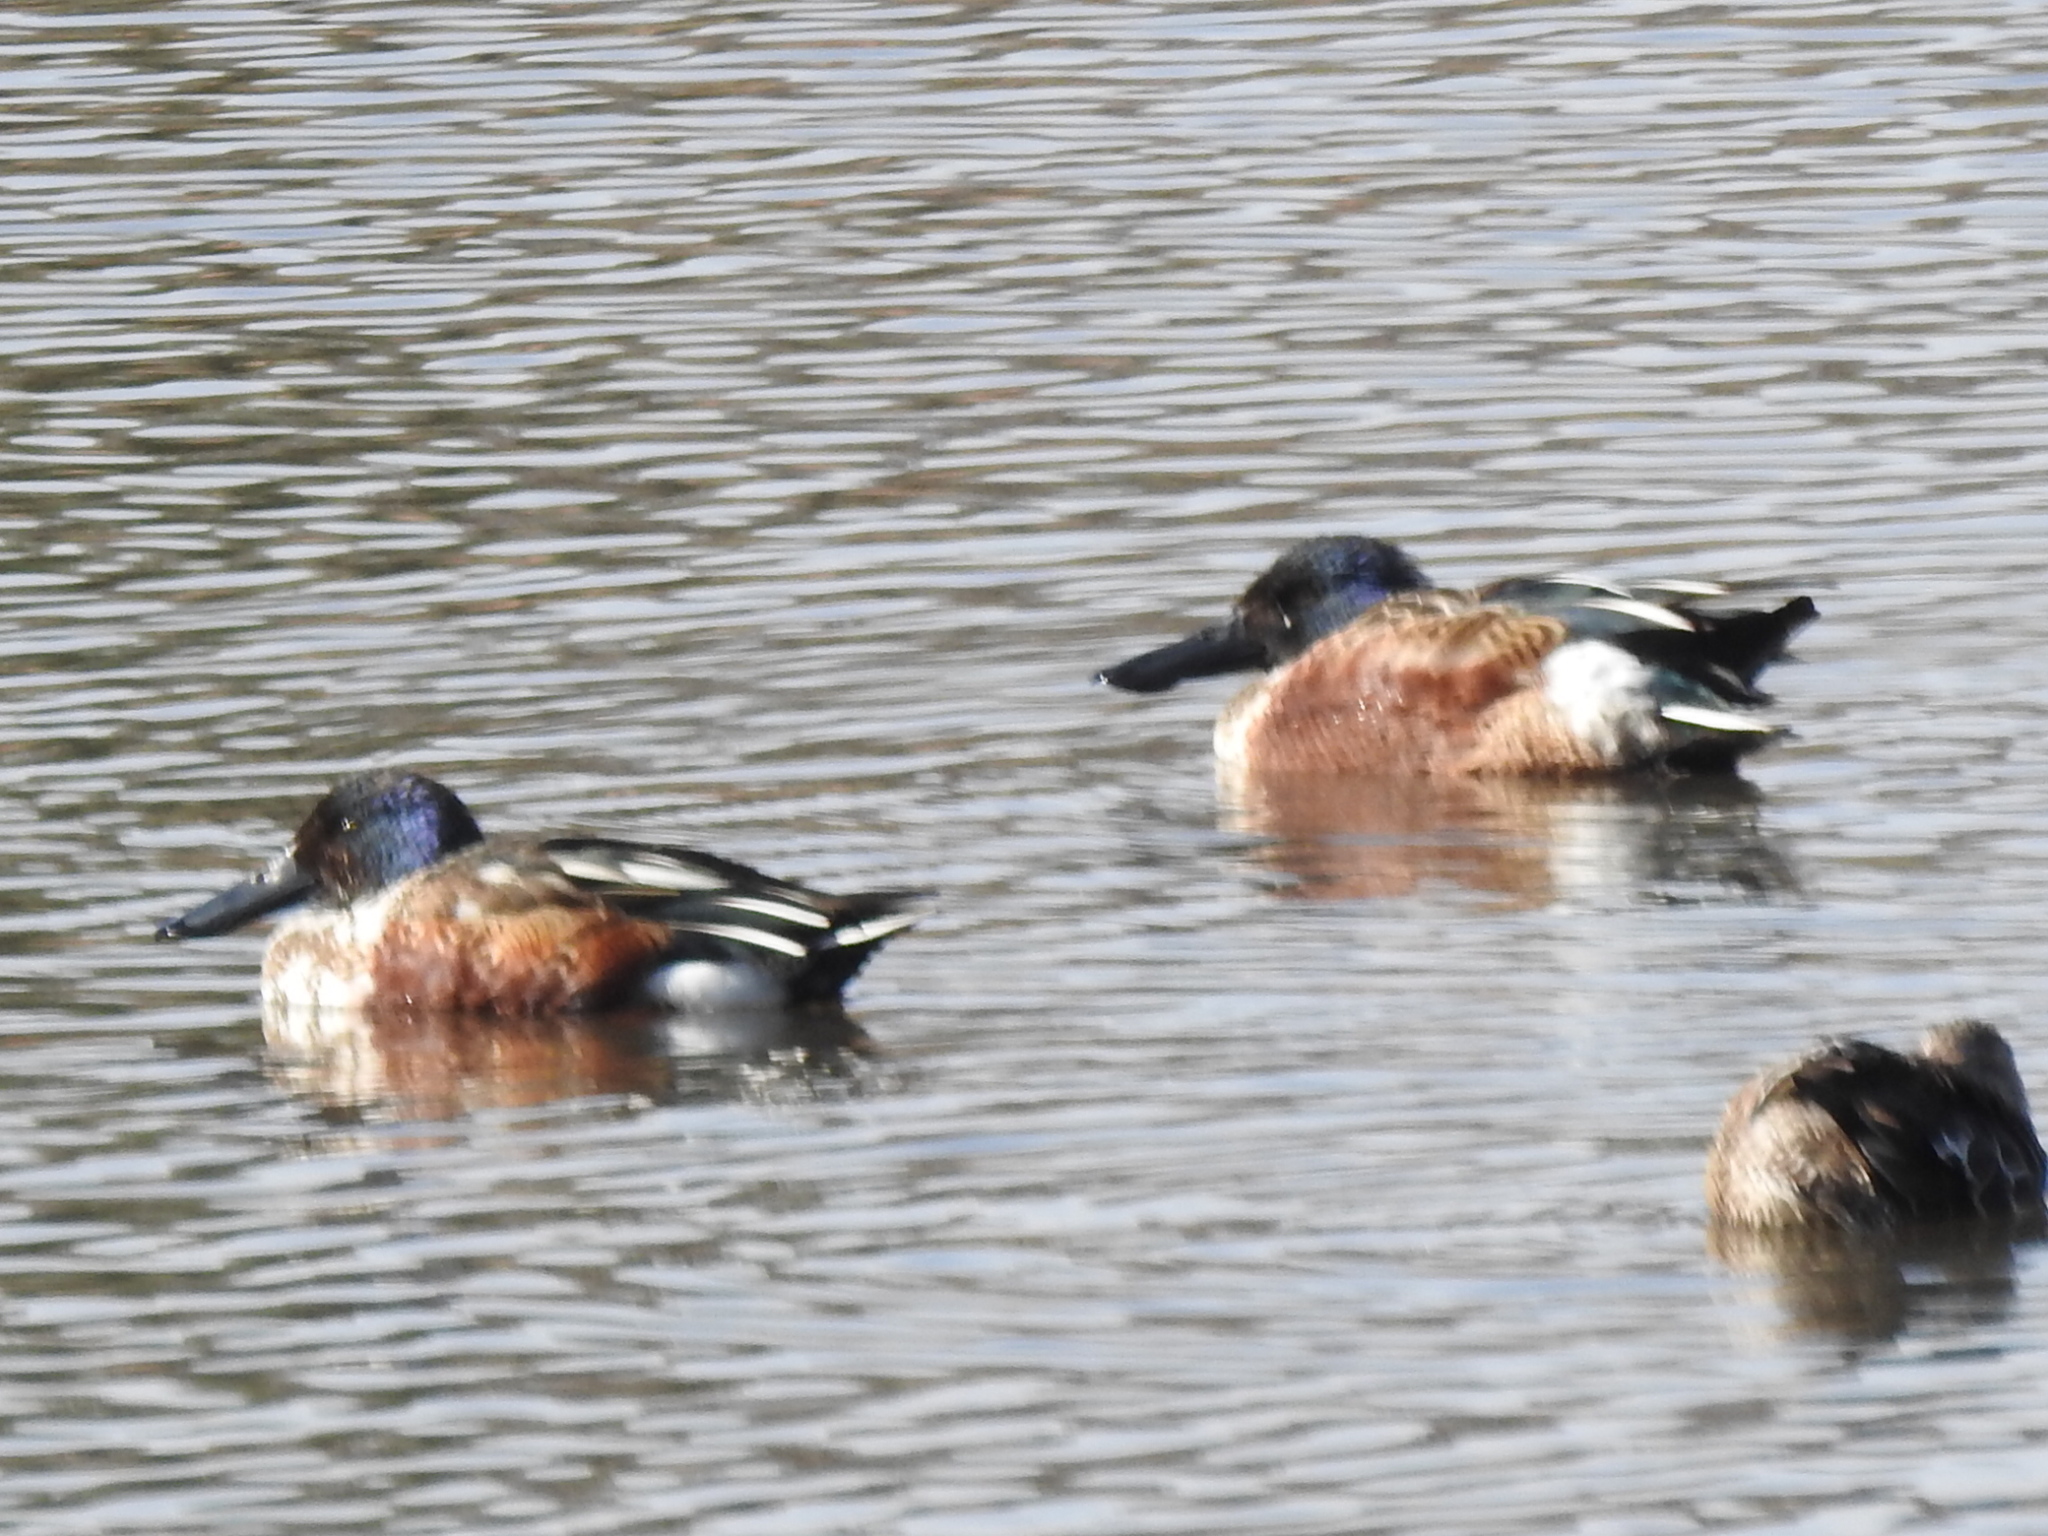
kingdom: Animalia
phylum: Chordata
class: Aves
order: Anseriformes
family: Anatidae
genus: Spatula
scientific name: Spatula clypeata
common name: Northern shoveler
